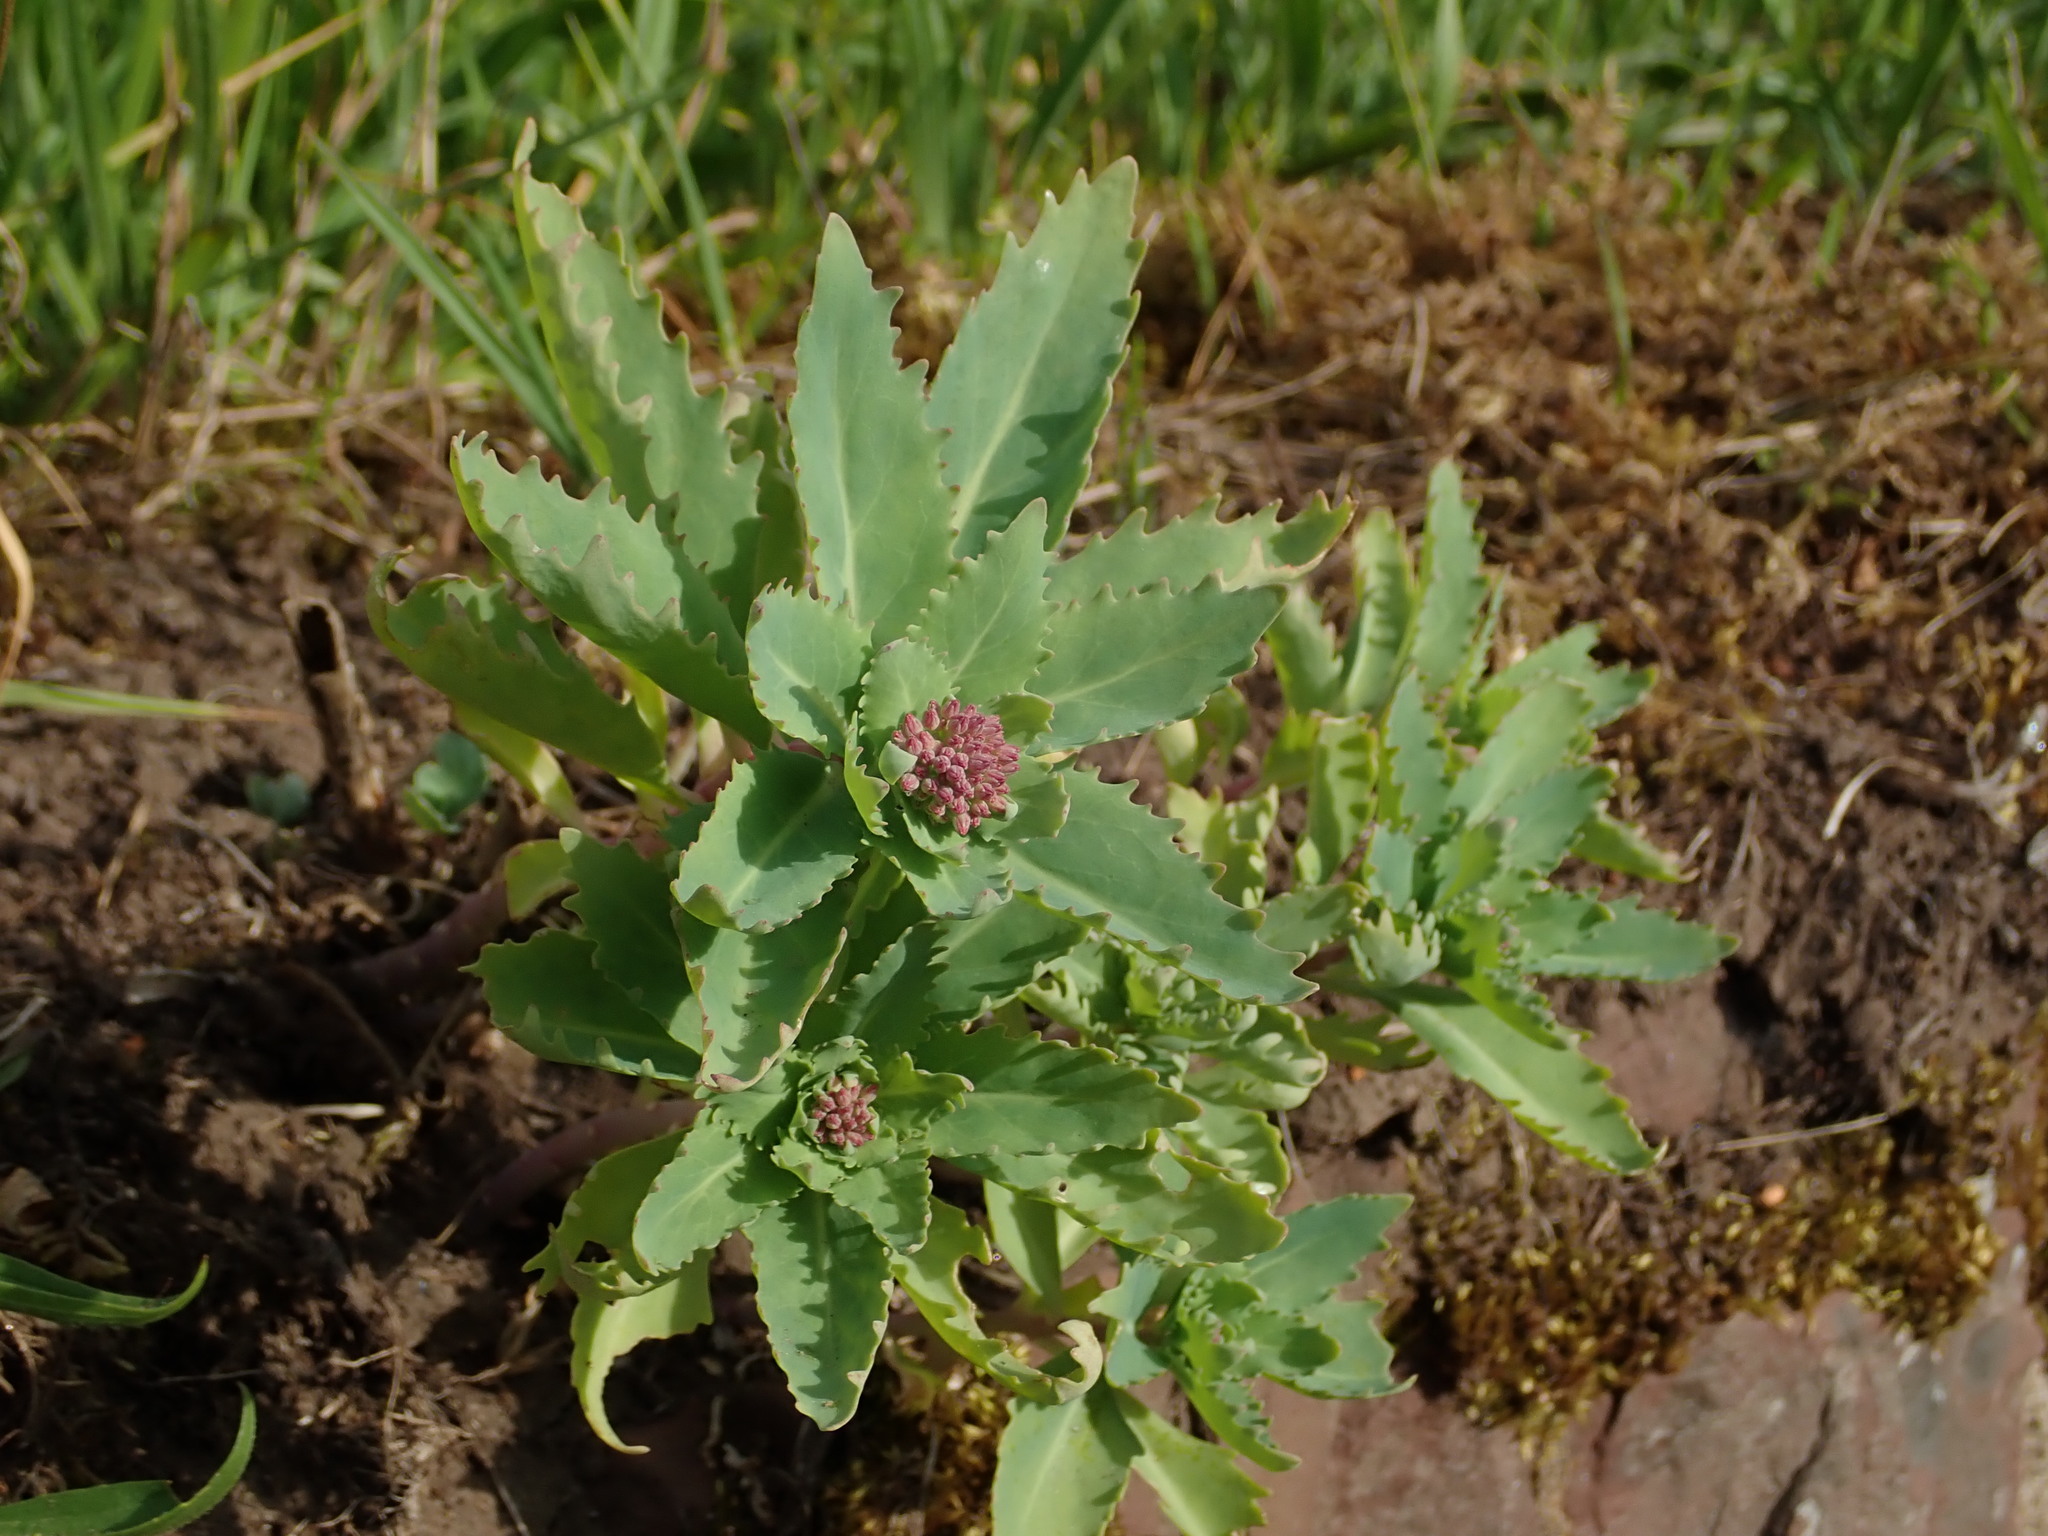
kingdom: Plantae
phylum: Tracheophyta
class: Magnoliopsida
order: Saxifragales
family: Crassulaceae
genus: Hylotelephium
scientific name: Hylotelephium vulgare
